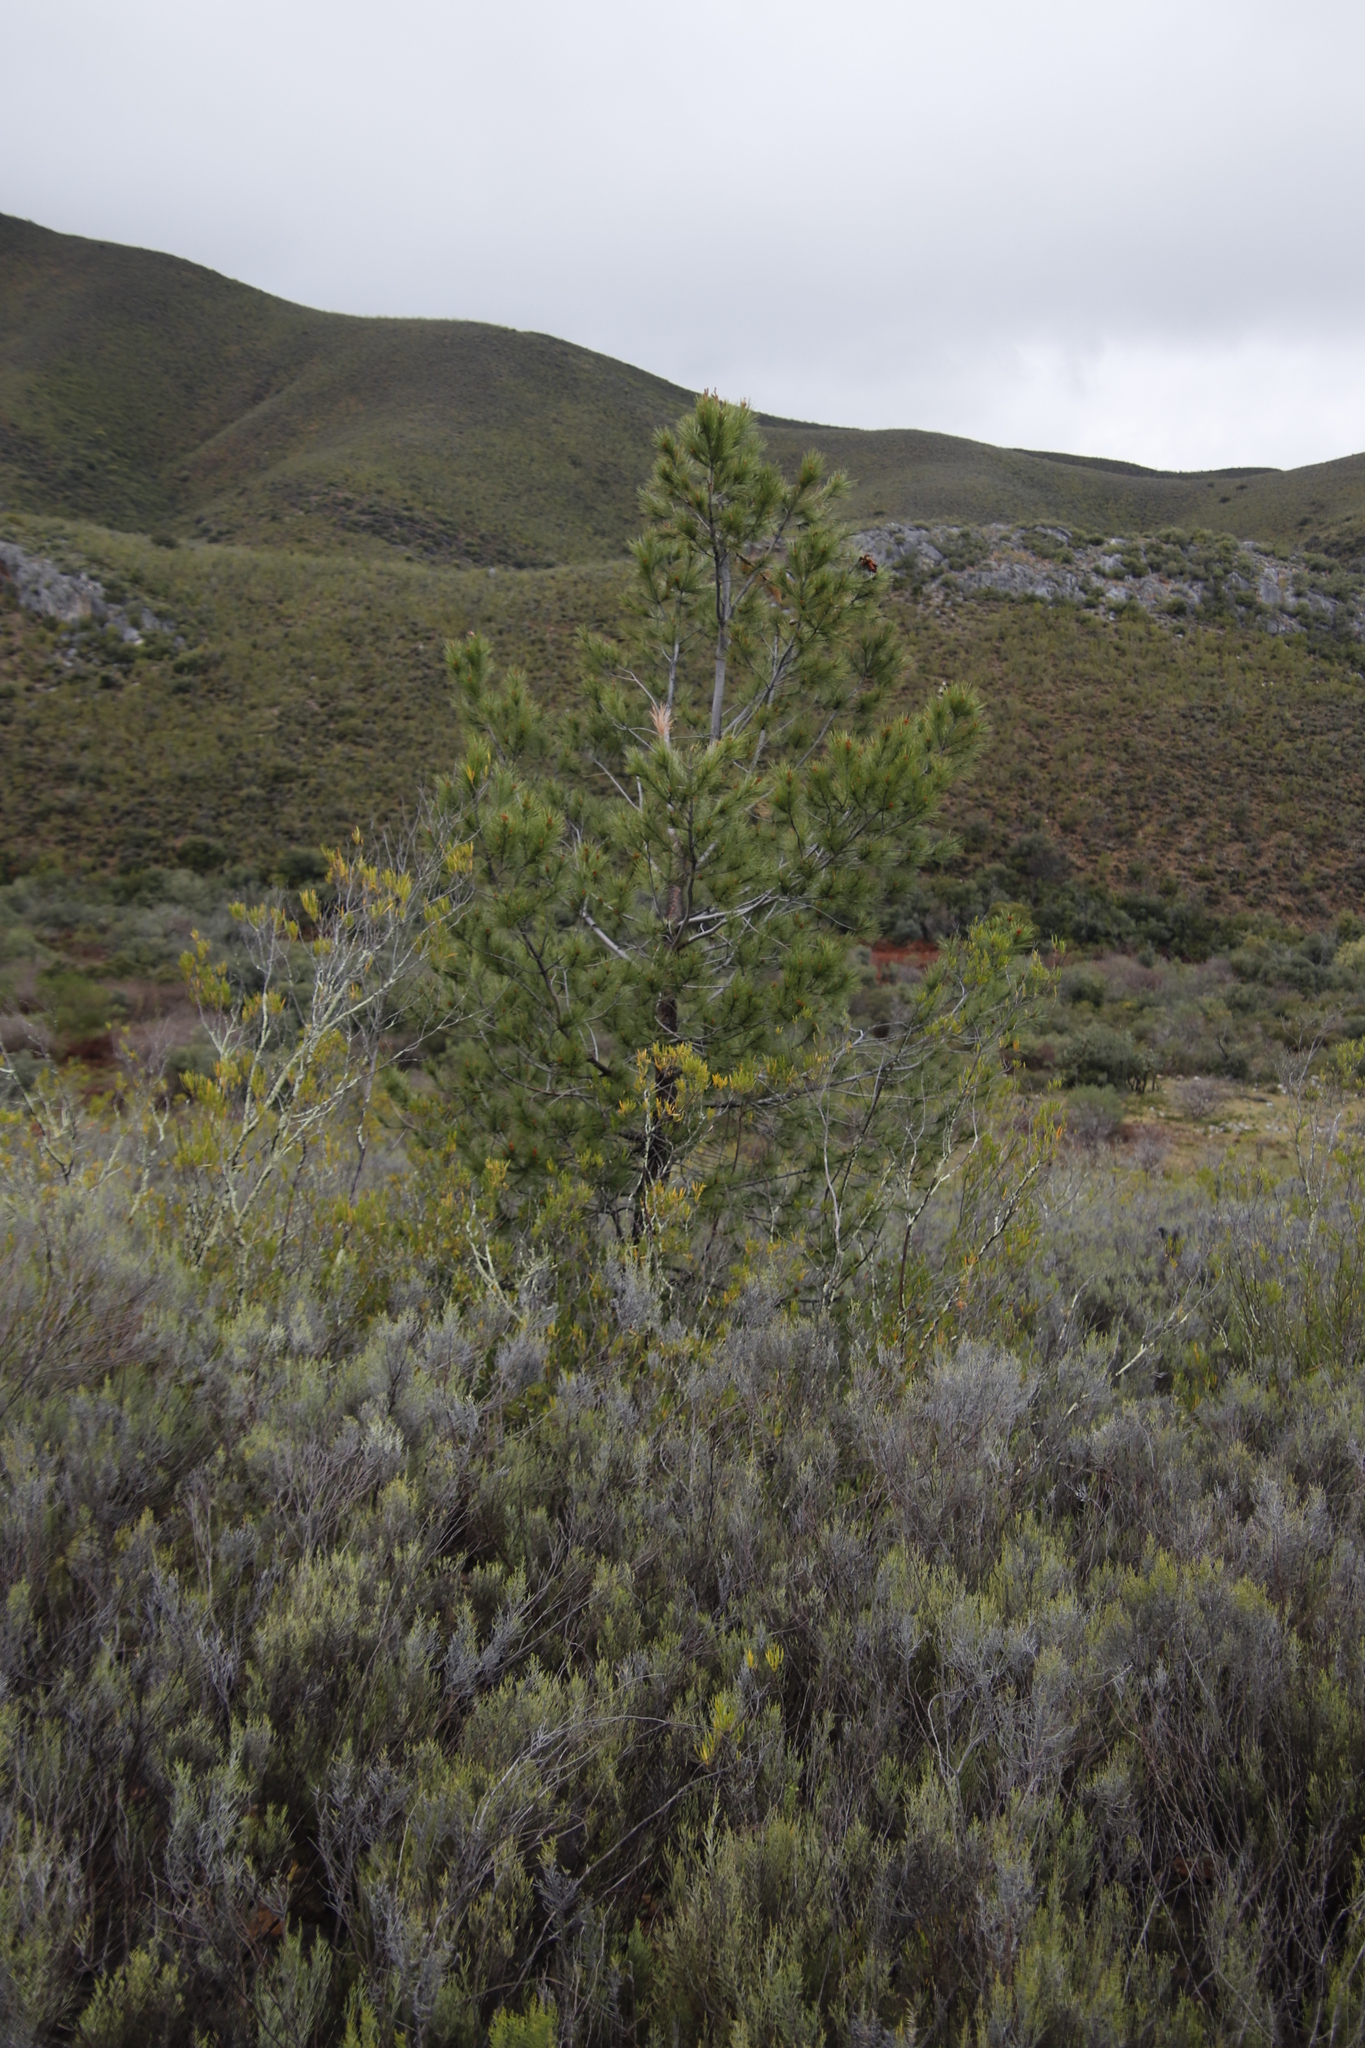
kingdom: Plantae
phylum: Tracheophyta
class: Magnoliopsida
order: Asterales
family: Asteraceae
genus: Dicerothamnus
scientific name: Dicerothamnus rhinocerotis
